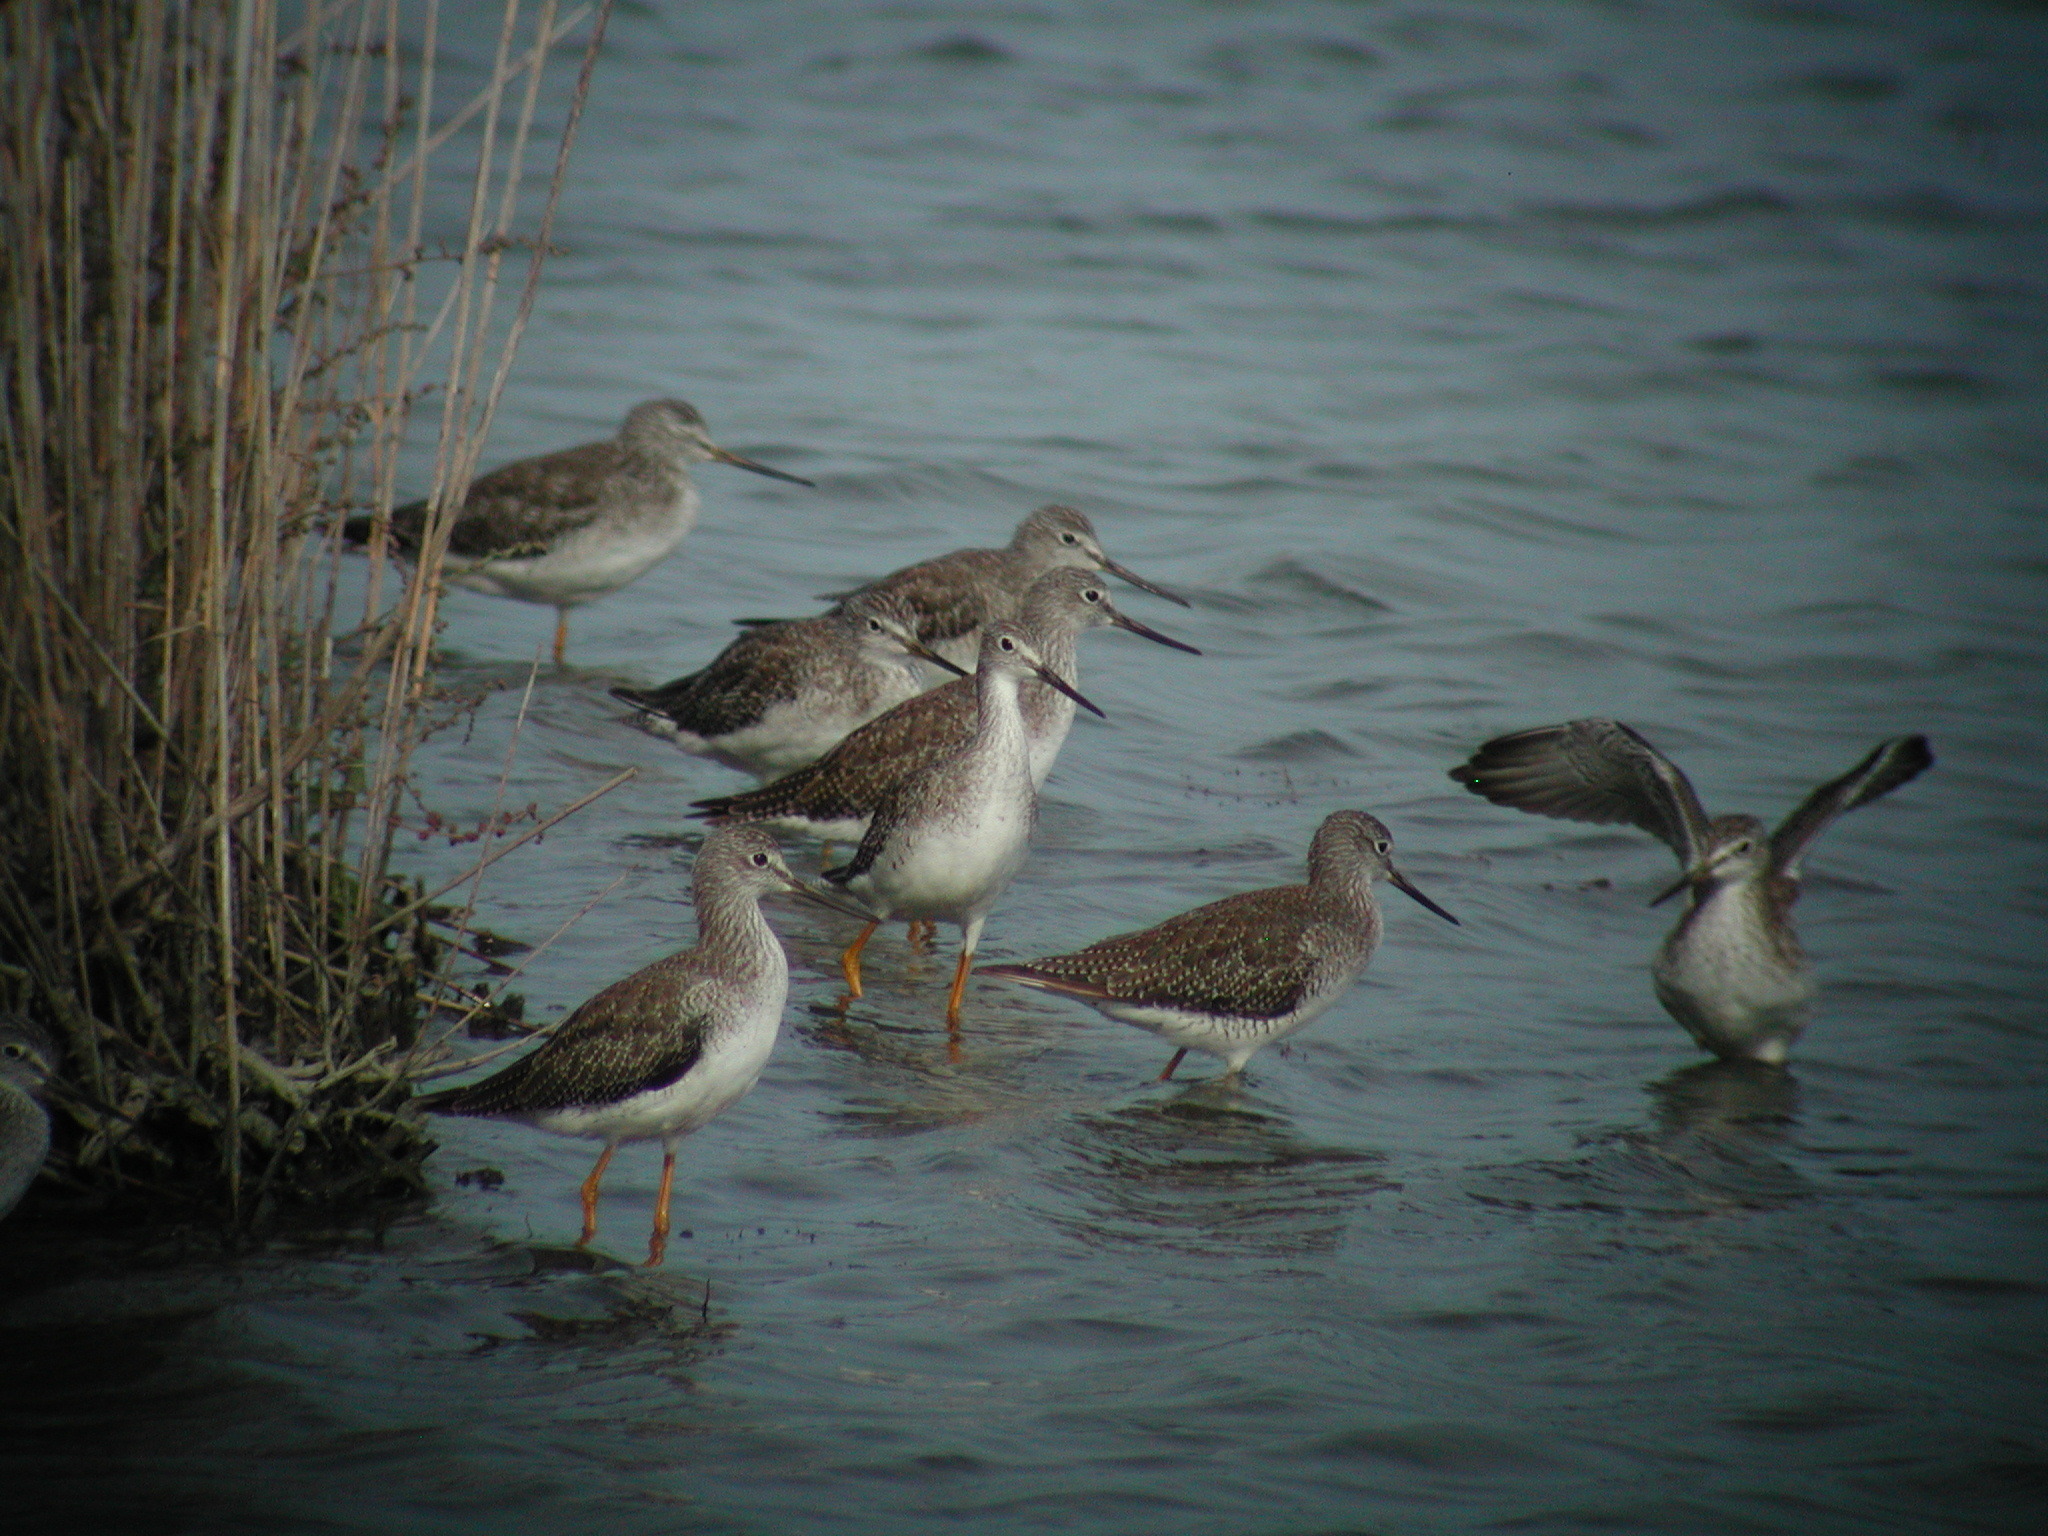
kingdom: Animalia
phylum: Chordata
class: Aves
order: Charadriiformes
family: Scolopacidae
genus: Tringa
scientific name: Tringa melanoleuca
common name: Greater yellowlegs
